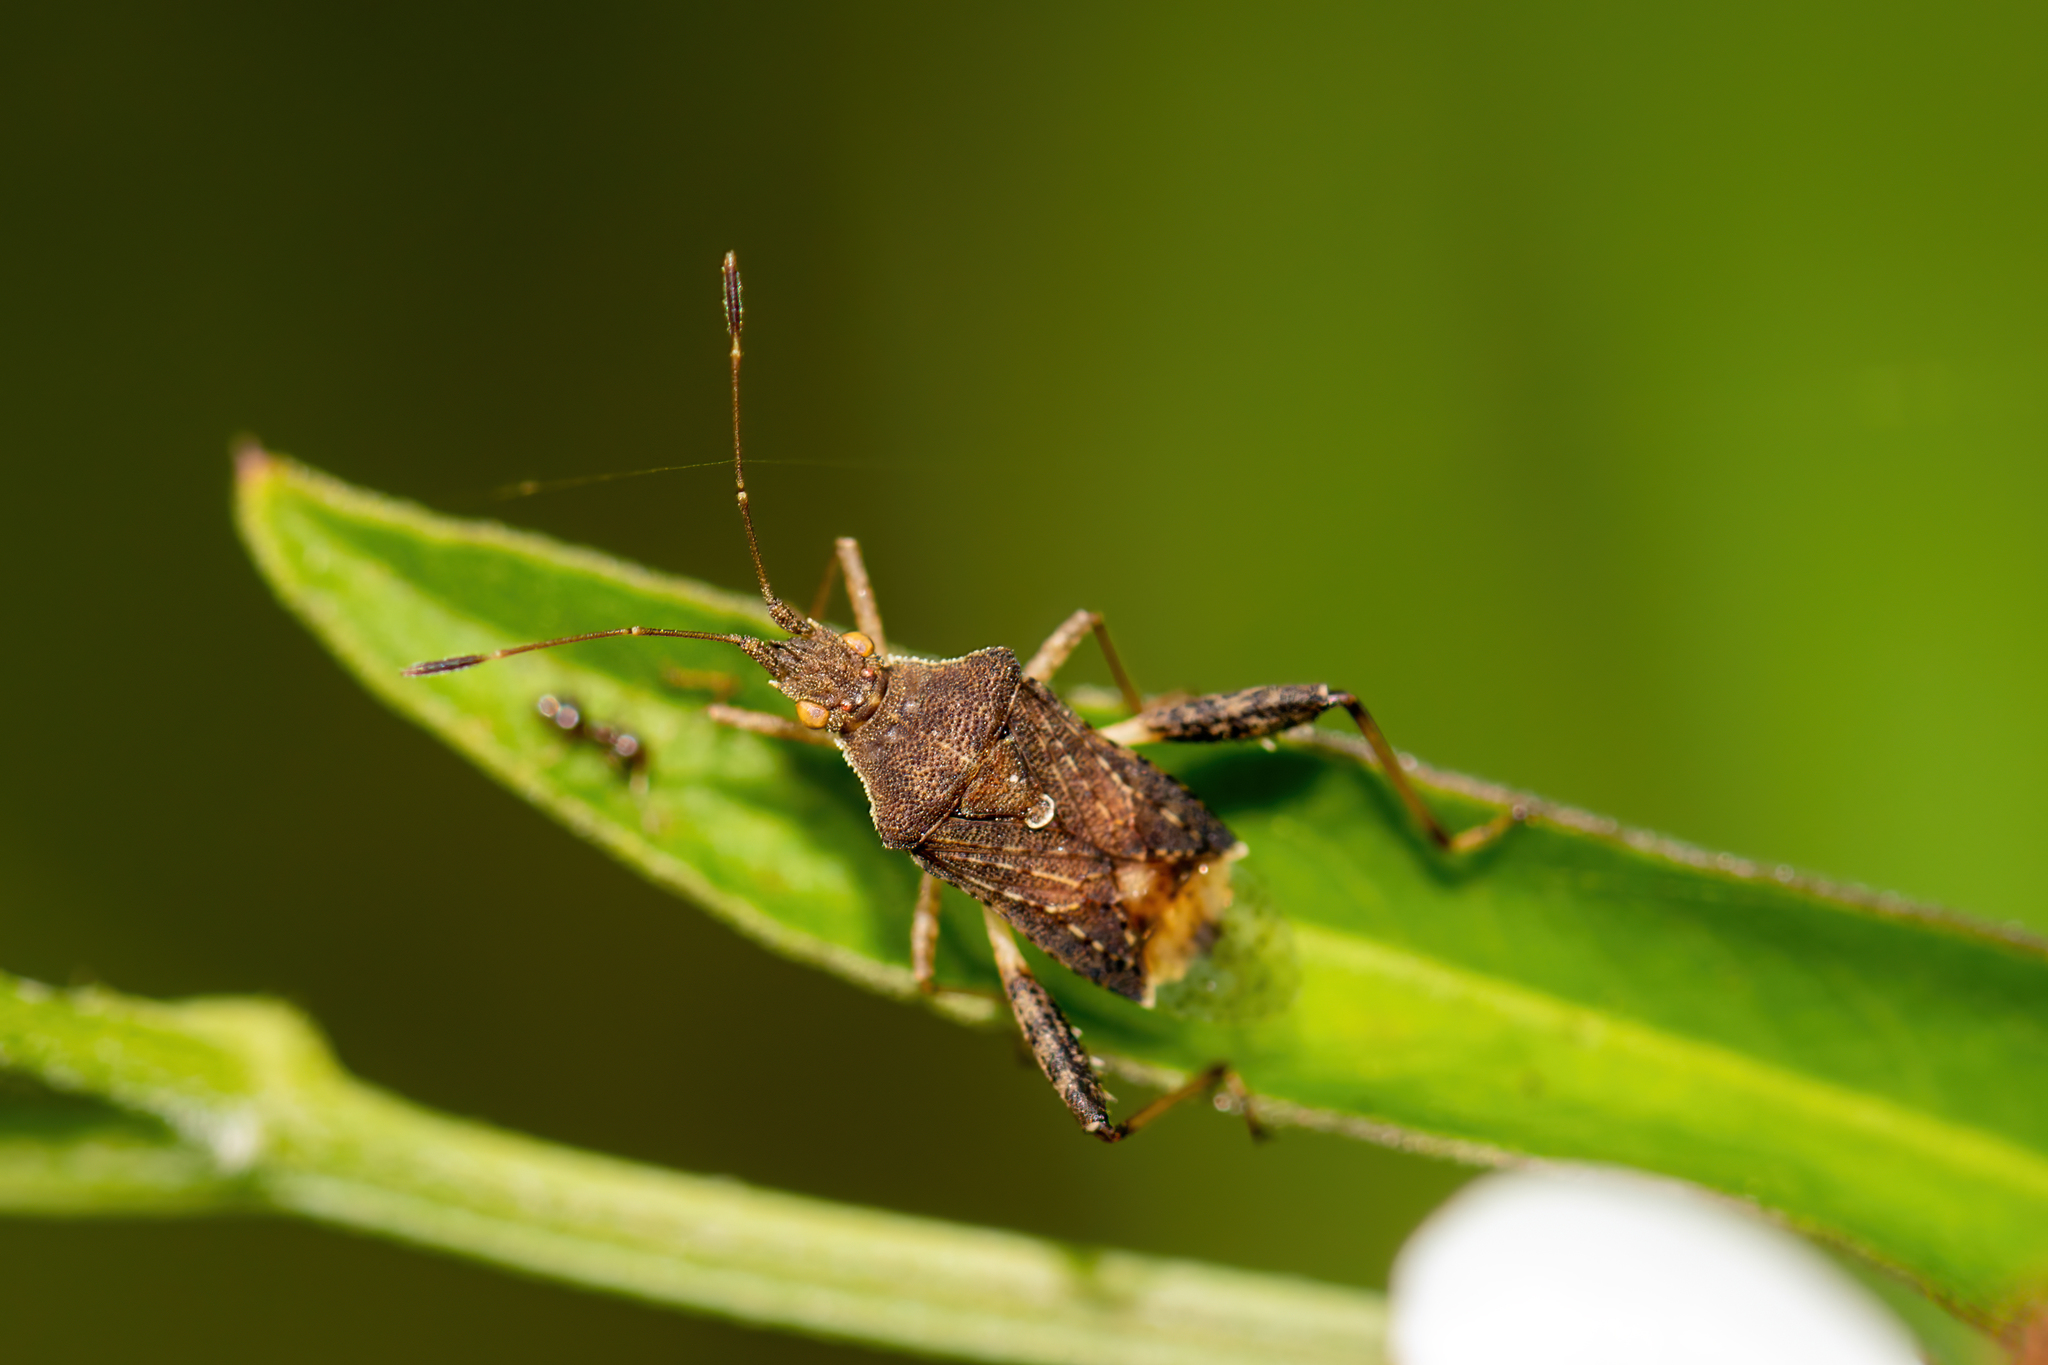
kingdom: Animalia
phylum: Arthropoda
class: Insecta
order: Hemiptera
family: Rhopalidae
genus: Harmostes
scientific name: Harmostes serratus
